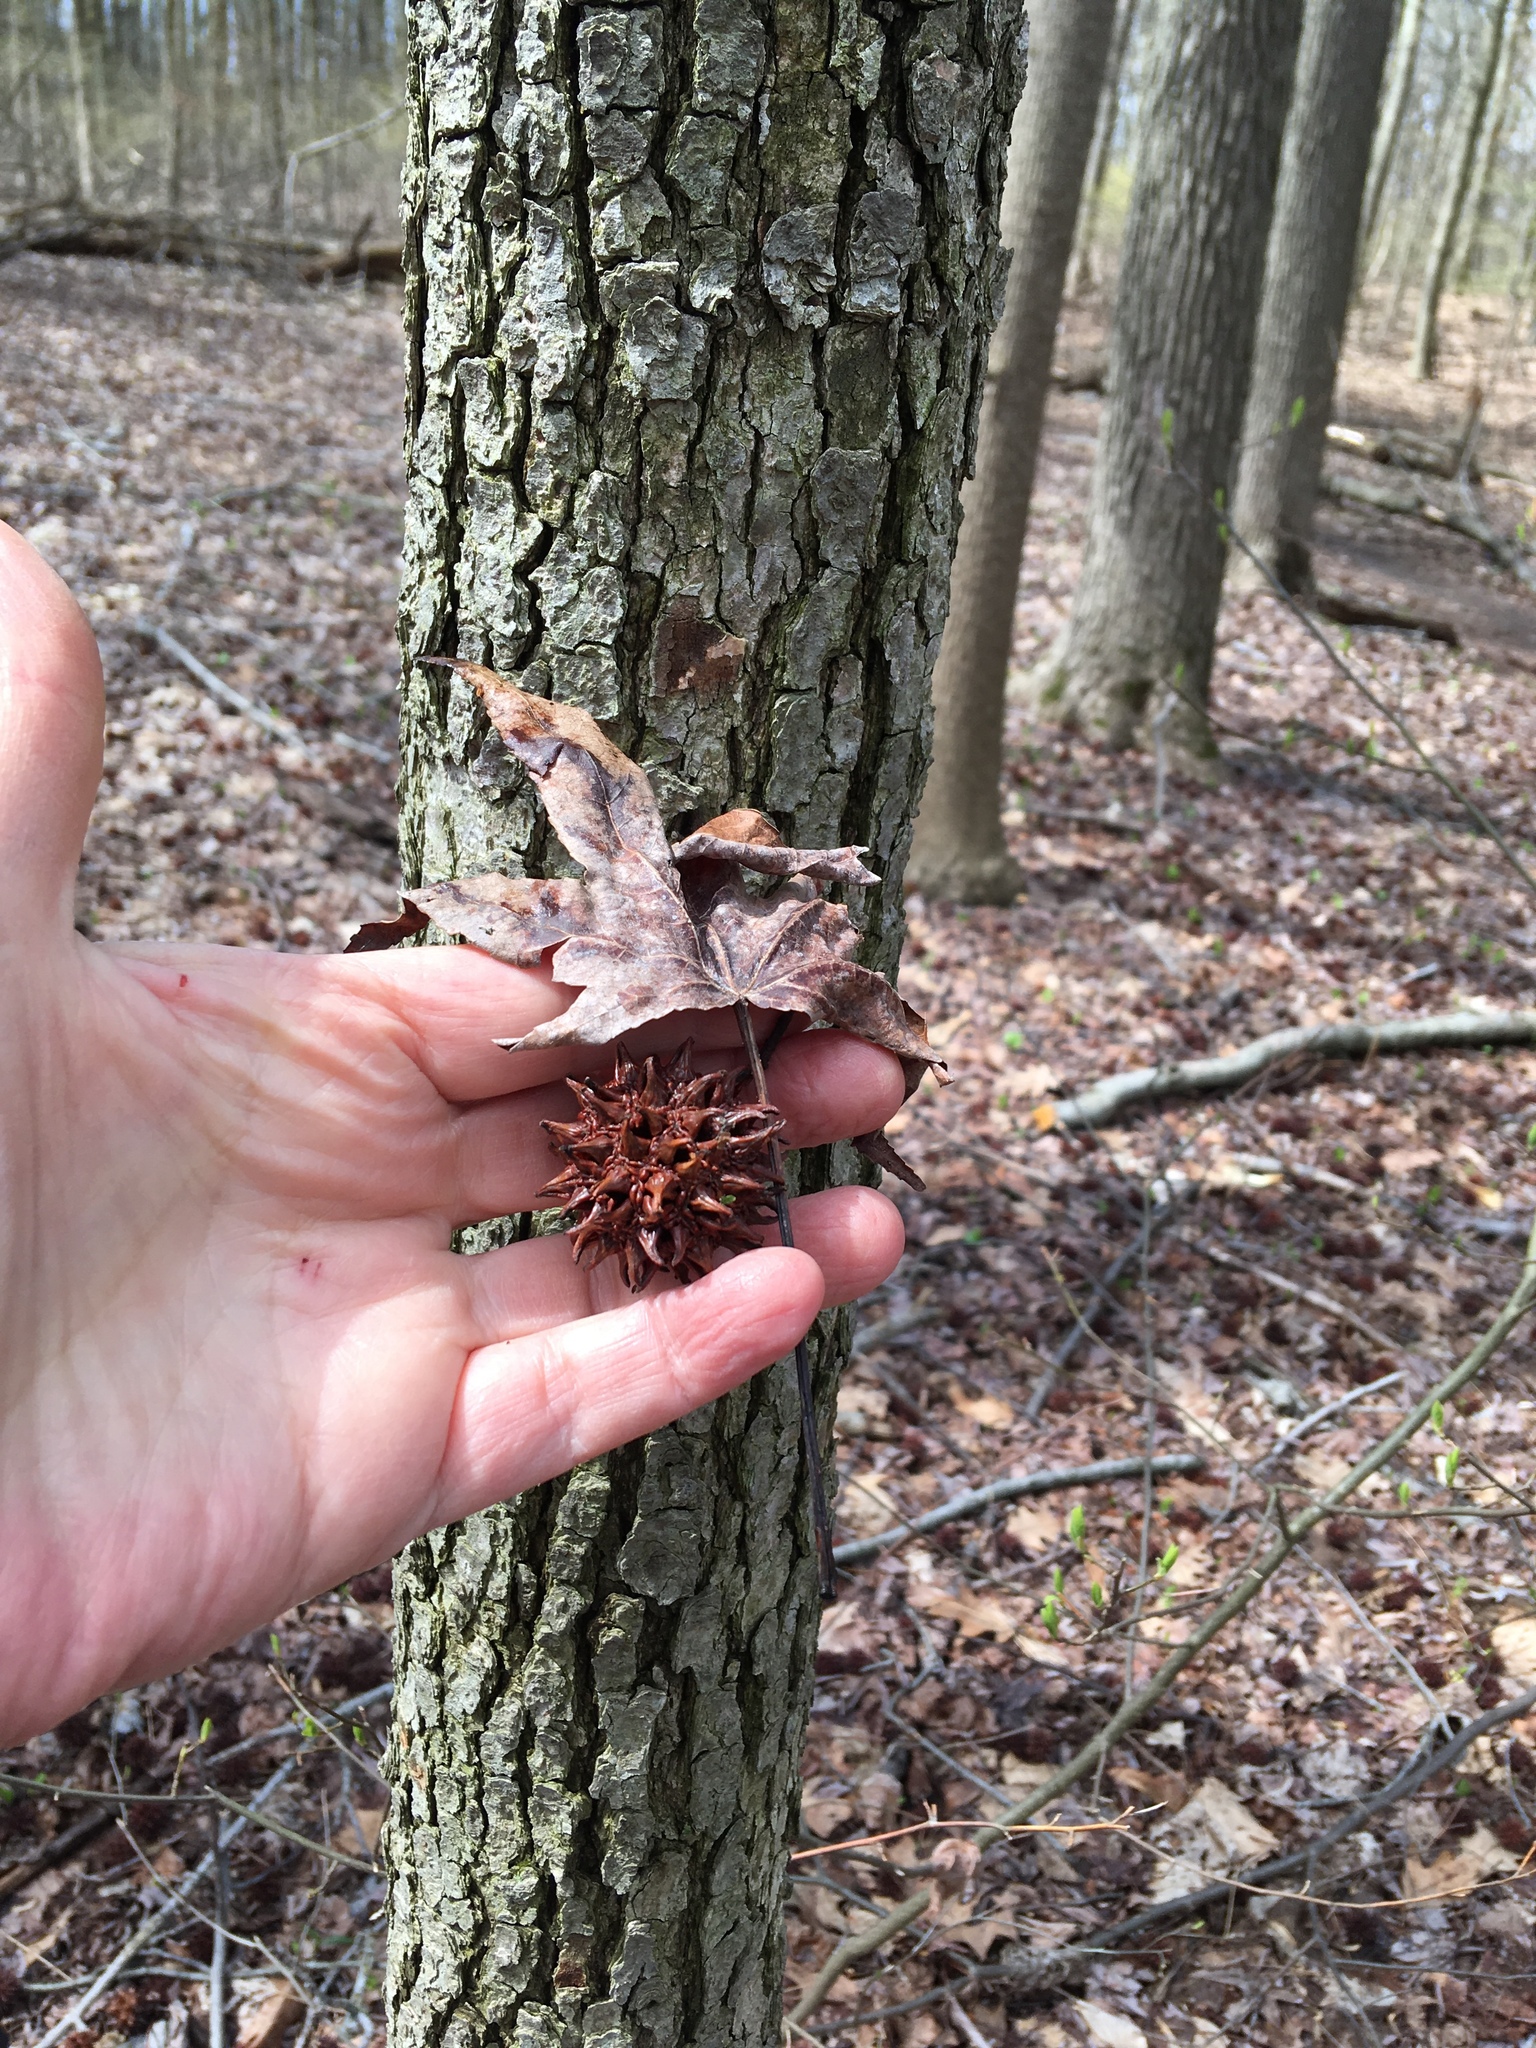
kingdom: Plantae
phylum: Tracheophyta
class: Magnoliopsida
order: Saxifragales
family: Altingiaceae
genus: Liquidambar
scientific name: Liquidambar styraciflua
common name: Sweet gum
